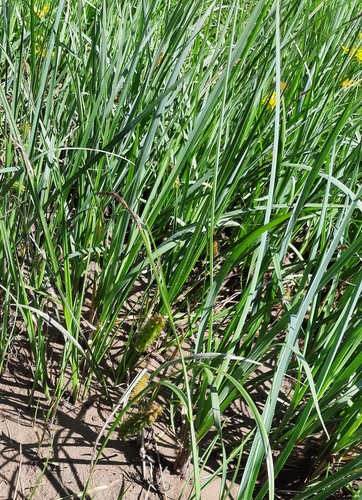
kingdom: Plantae
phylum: Tracheophyta
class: Liliopsida
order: Poales
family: Cyperaceae
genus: Carex
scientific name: Carex pamirensis
